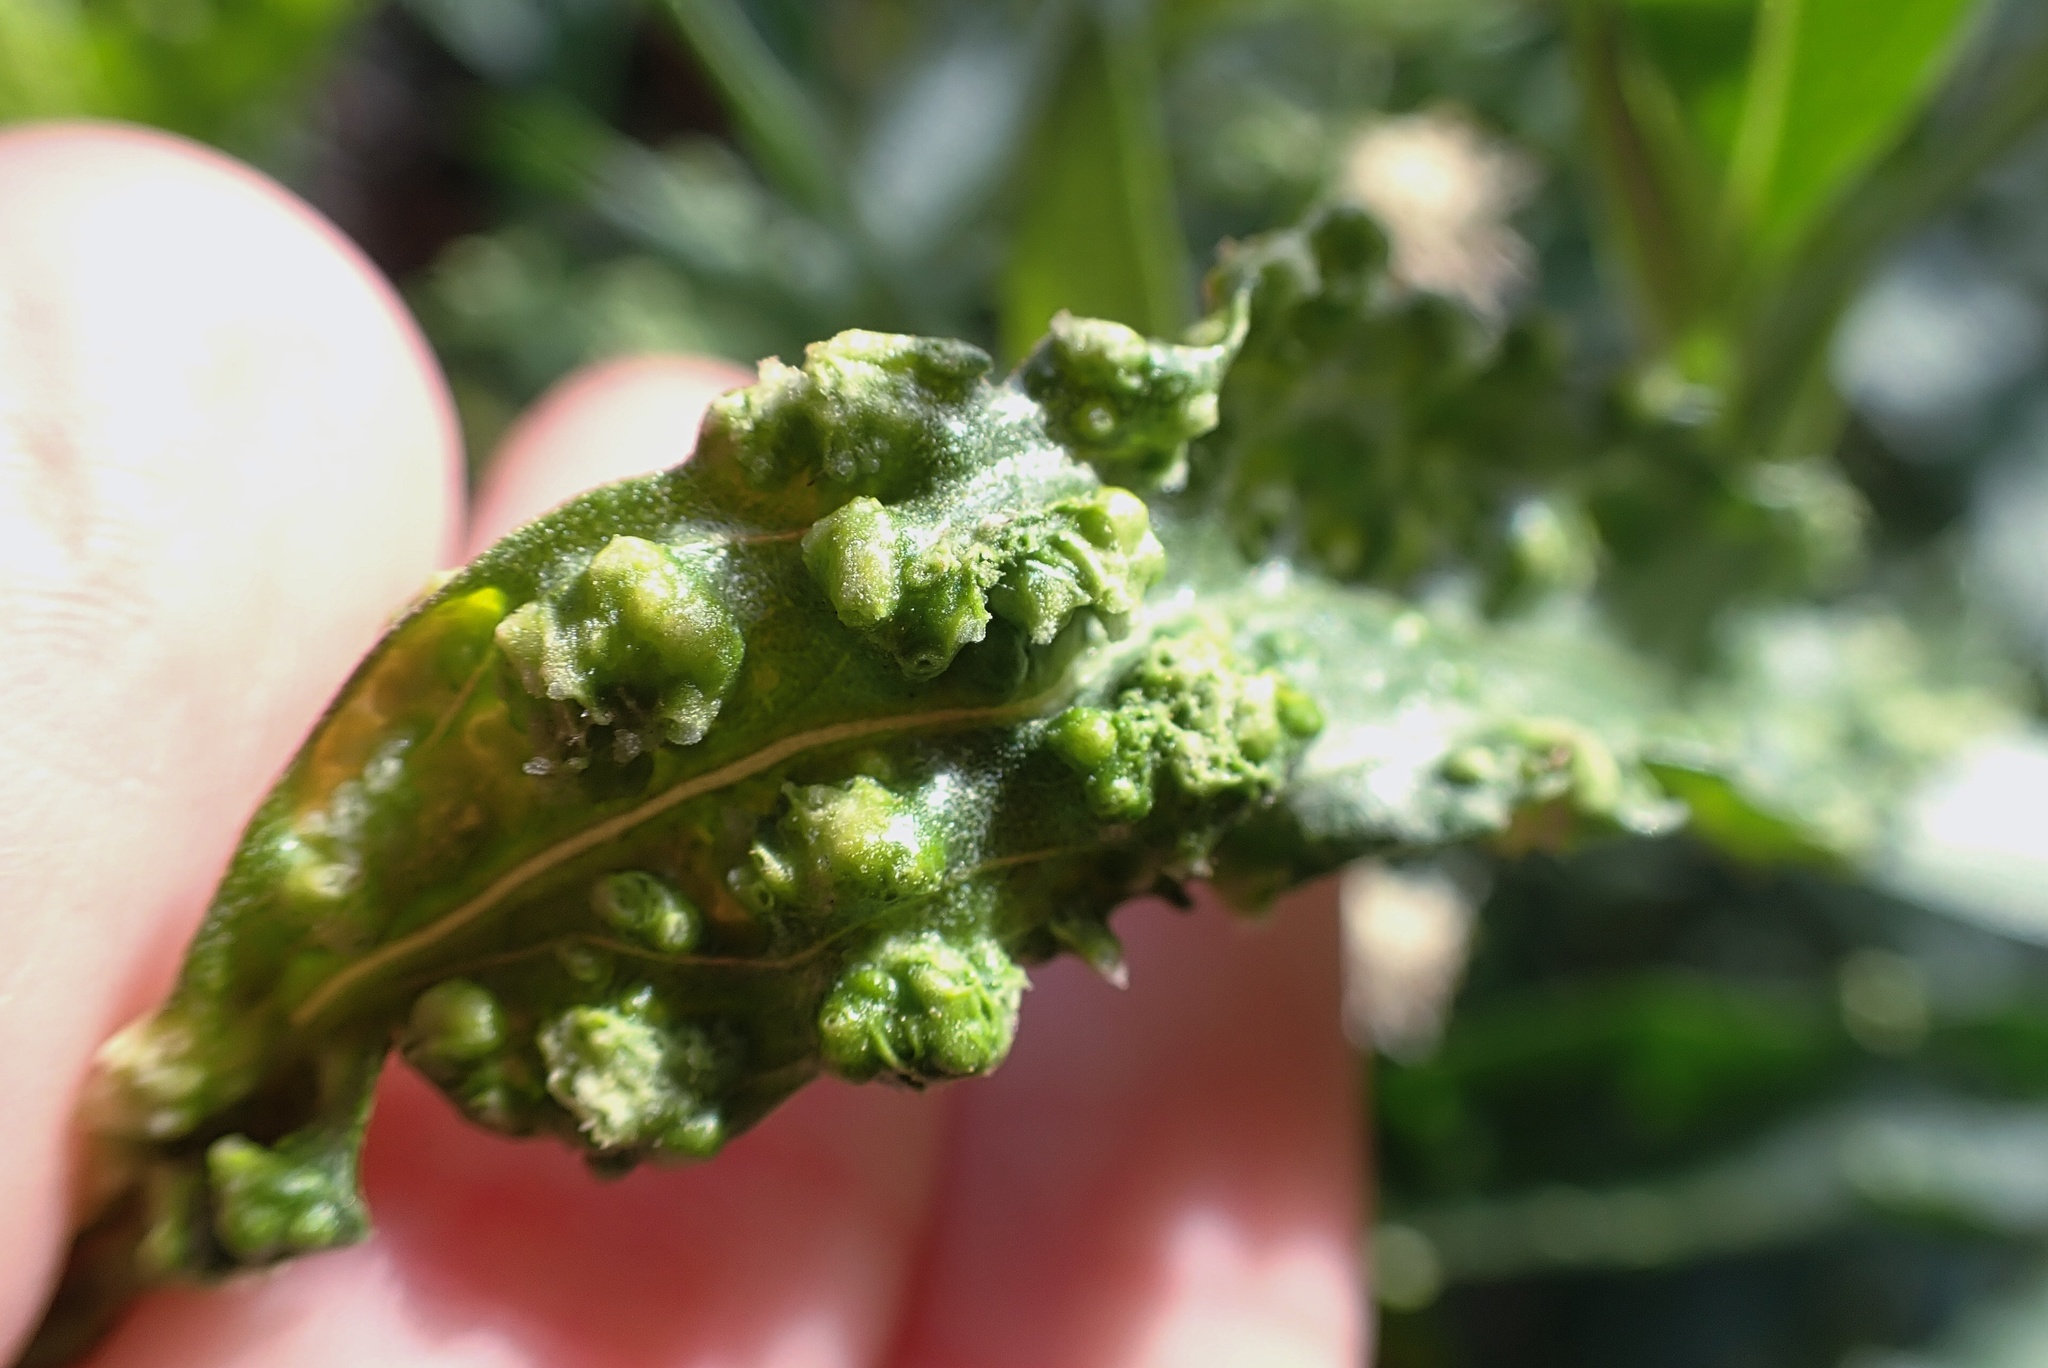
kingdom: Animalia
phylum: Arthropoda
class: Arachnida
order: Trombidiformes
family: Eriophyidae
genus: Aceria
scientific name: Aceria
